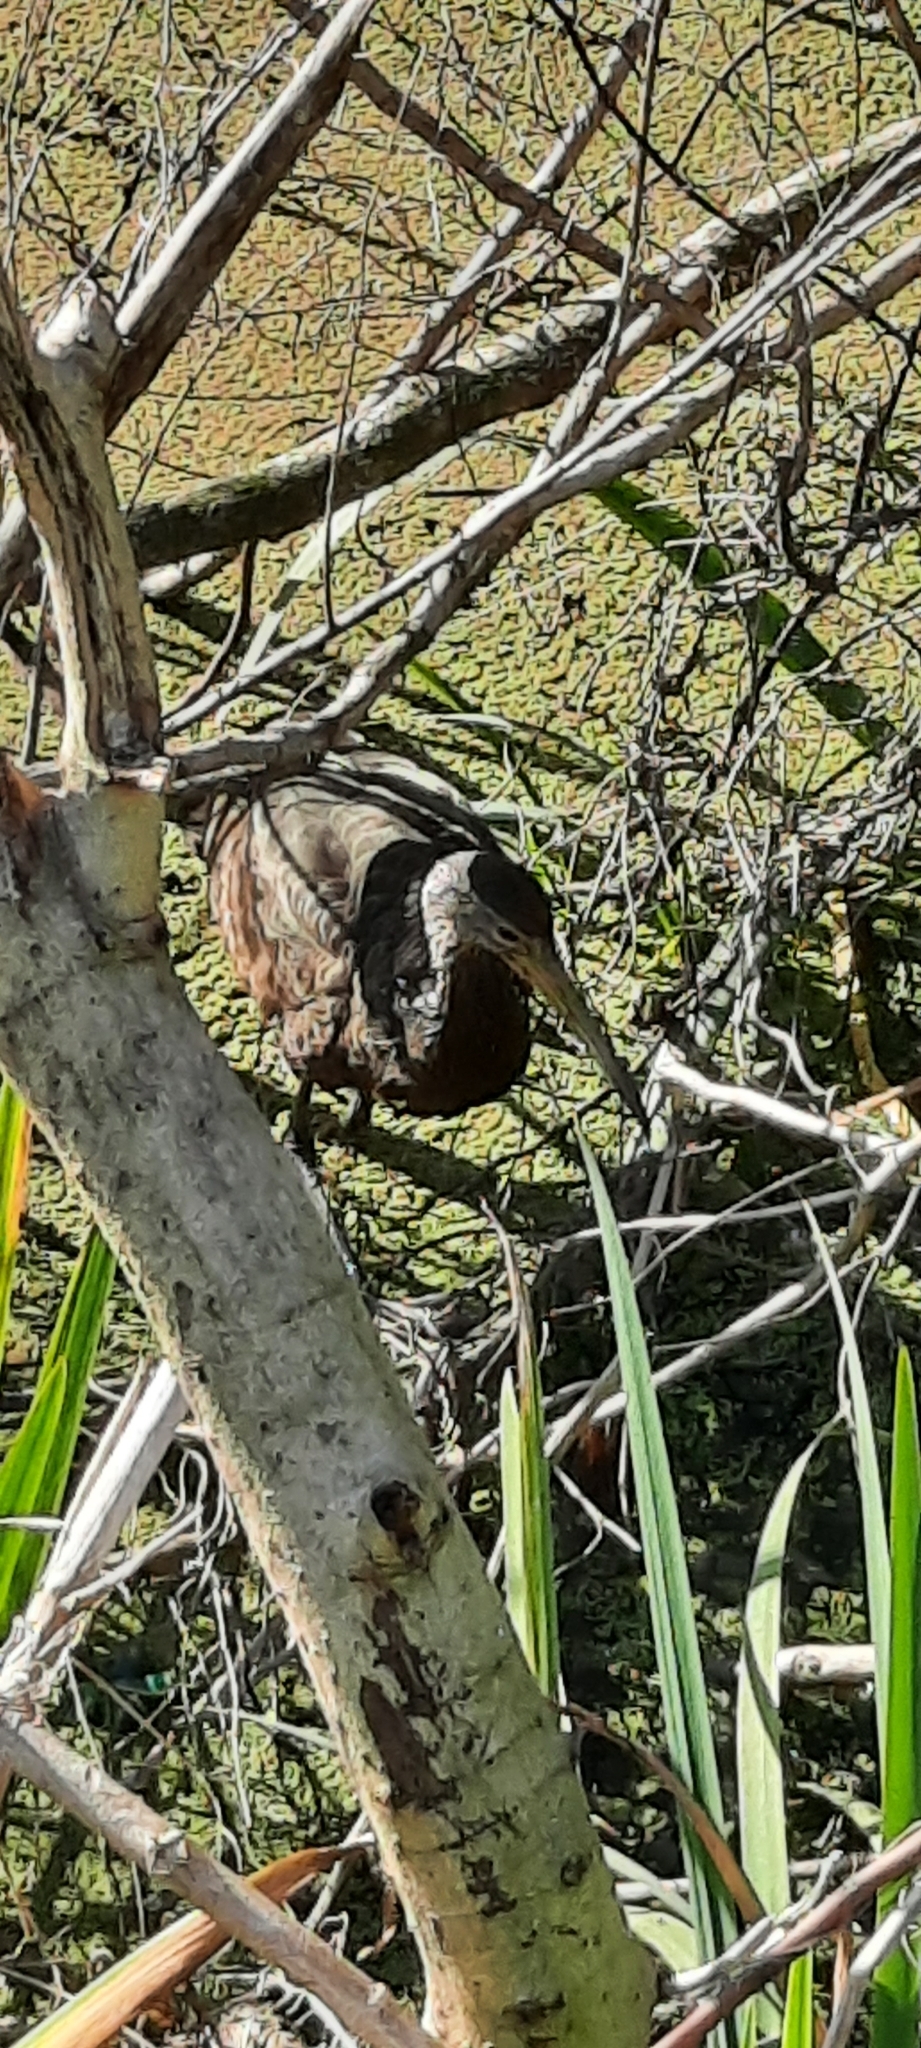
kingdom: Animalia
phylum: Chordata
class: Aves
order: Gruiformes
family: Aramidae
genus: Aramus
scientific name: Aramus guarauna
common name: Limpkin
